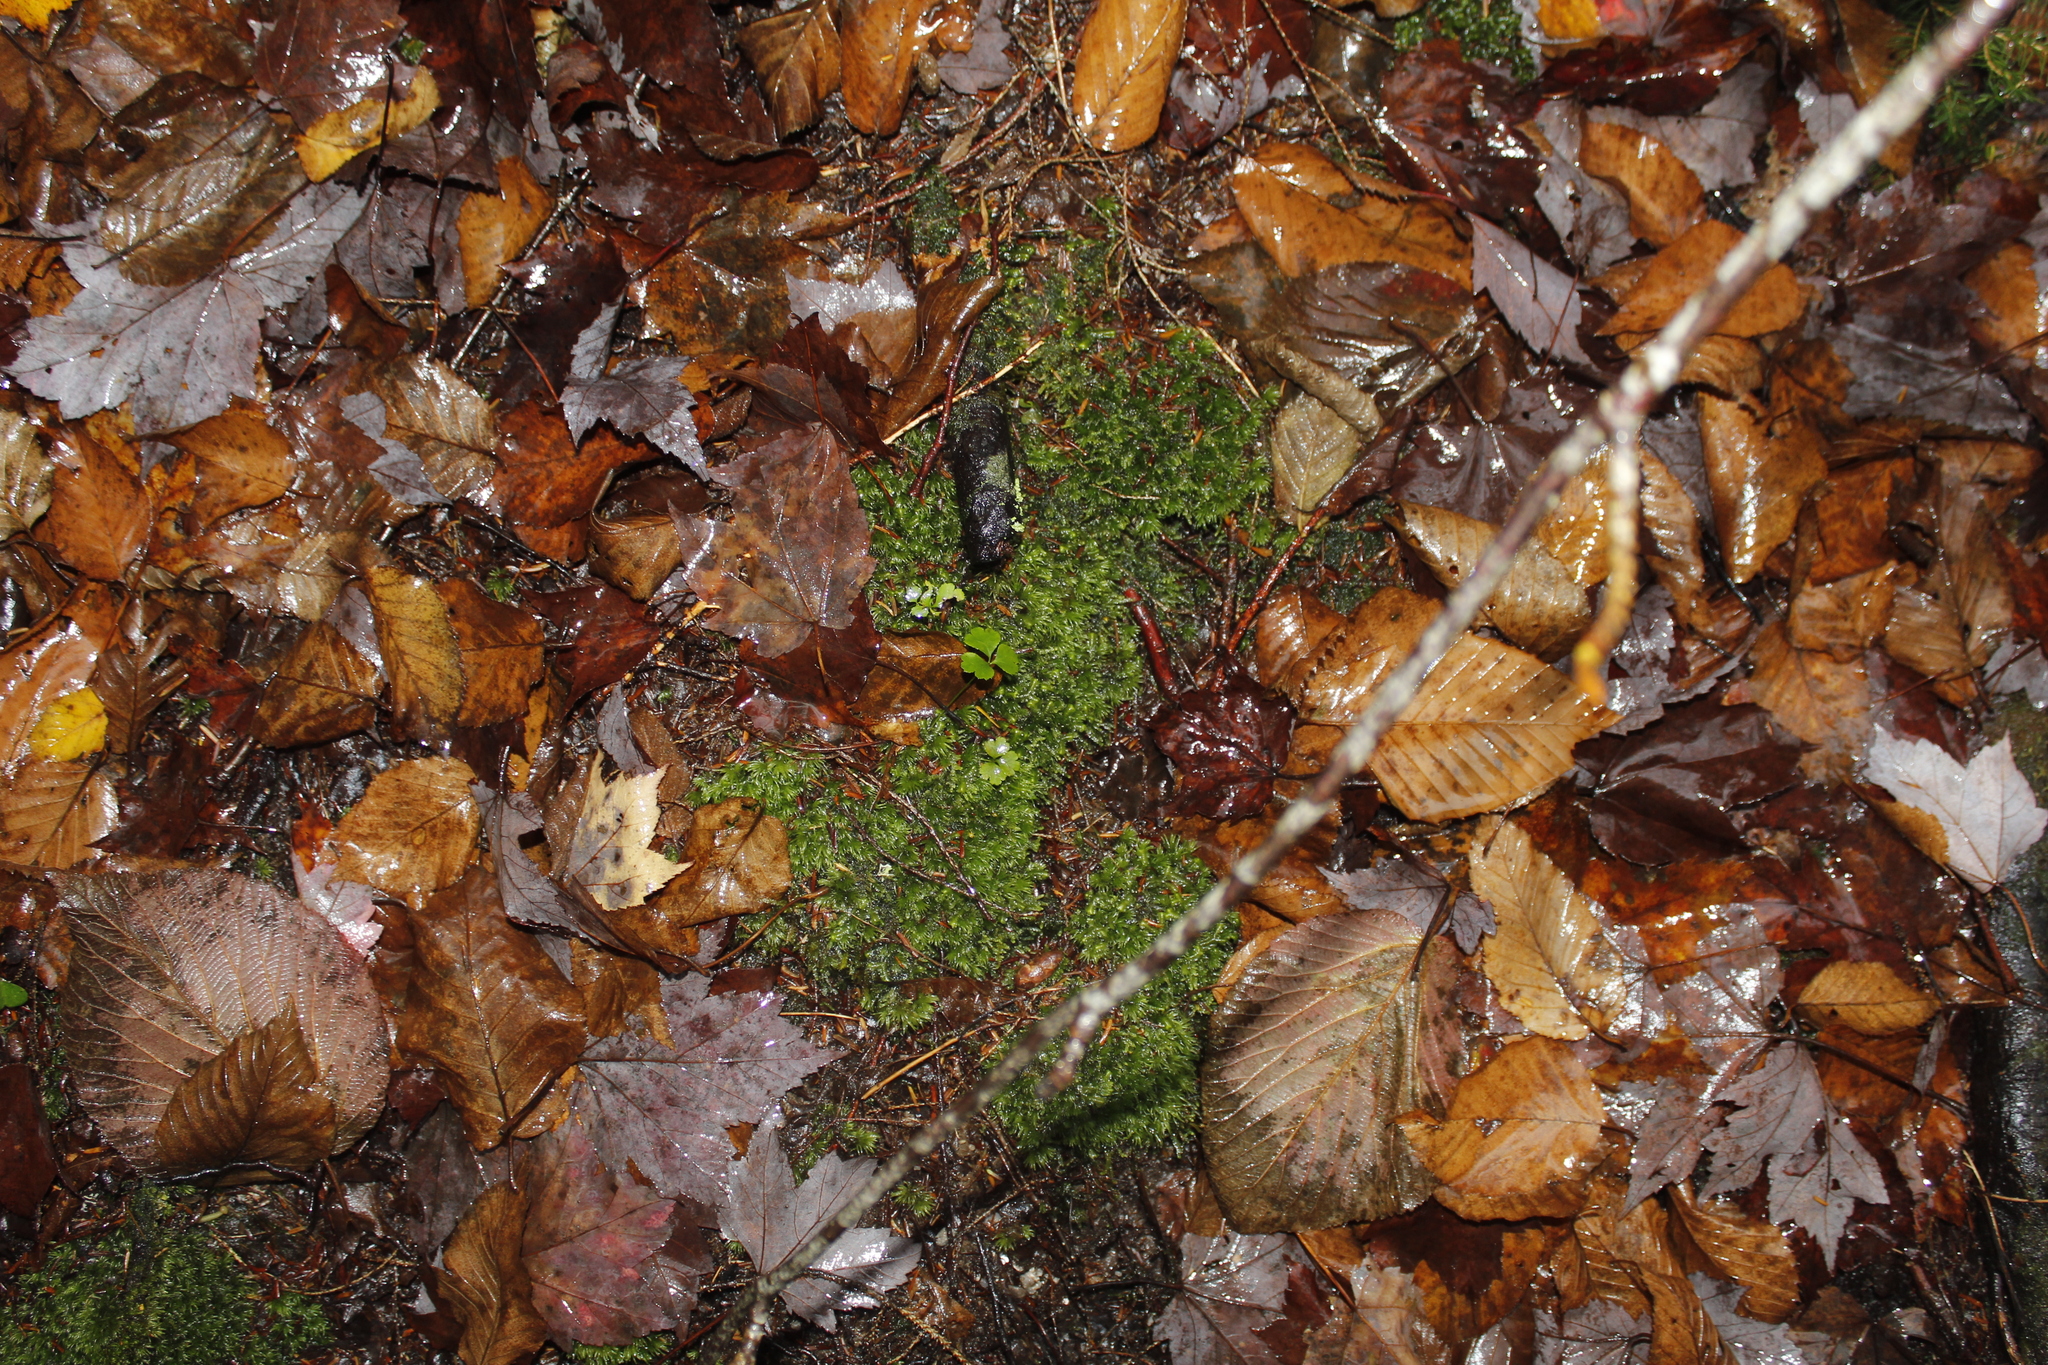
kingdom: Plantae
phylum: Tracheophyta
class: Magnoliopsida
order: Ranunculales
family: Ranunculaceae
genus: Coptis
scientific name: Coptis trifolia
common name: Canker-root
